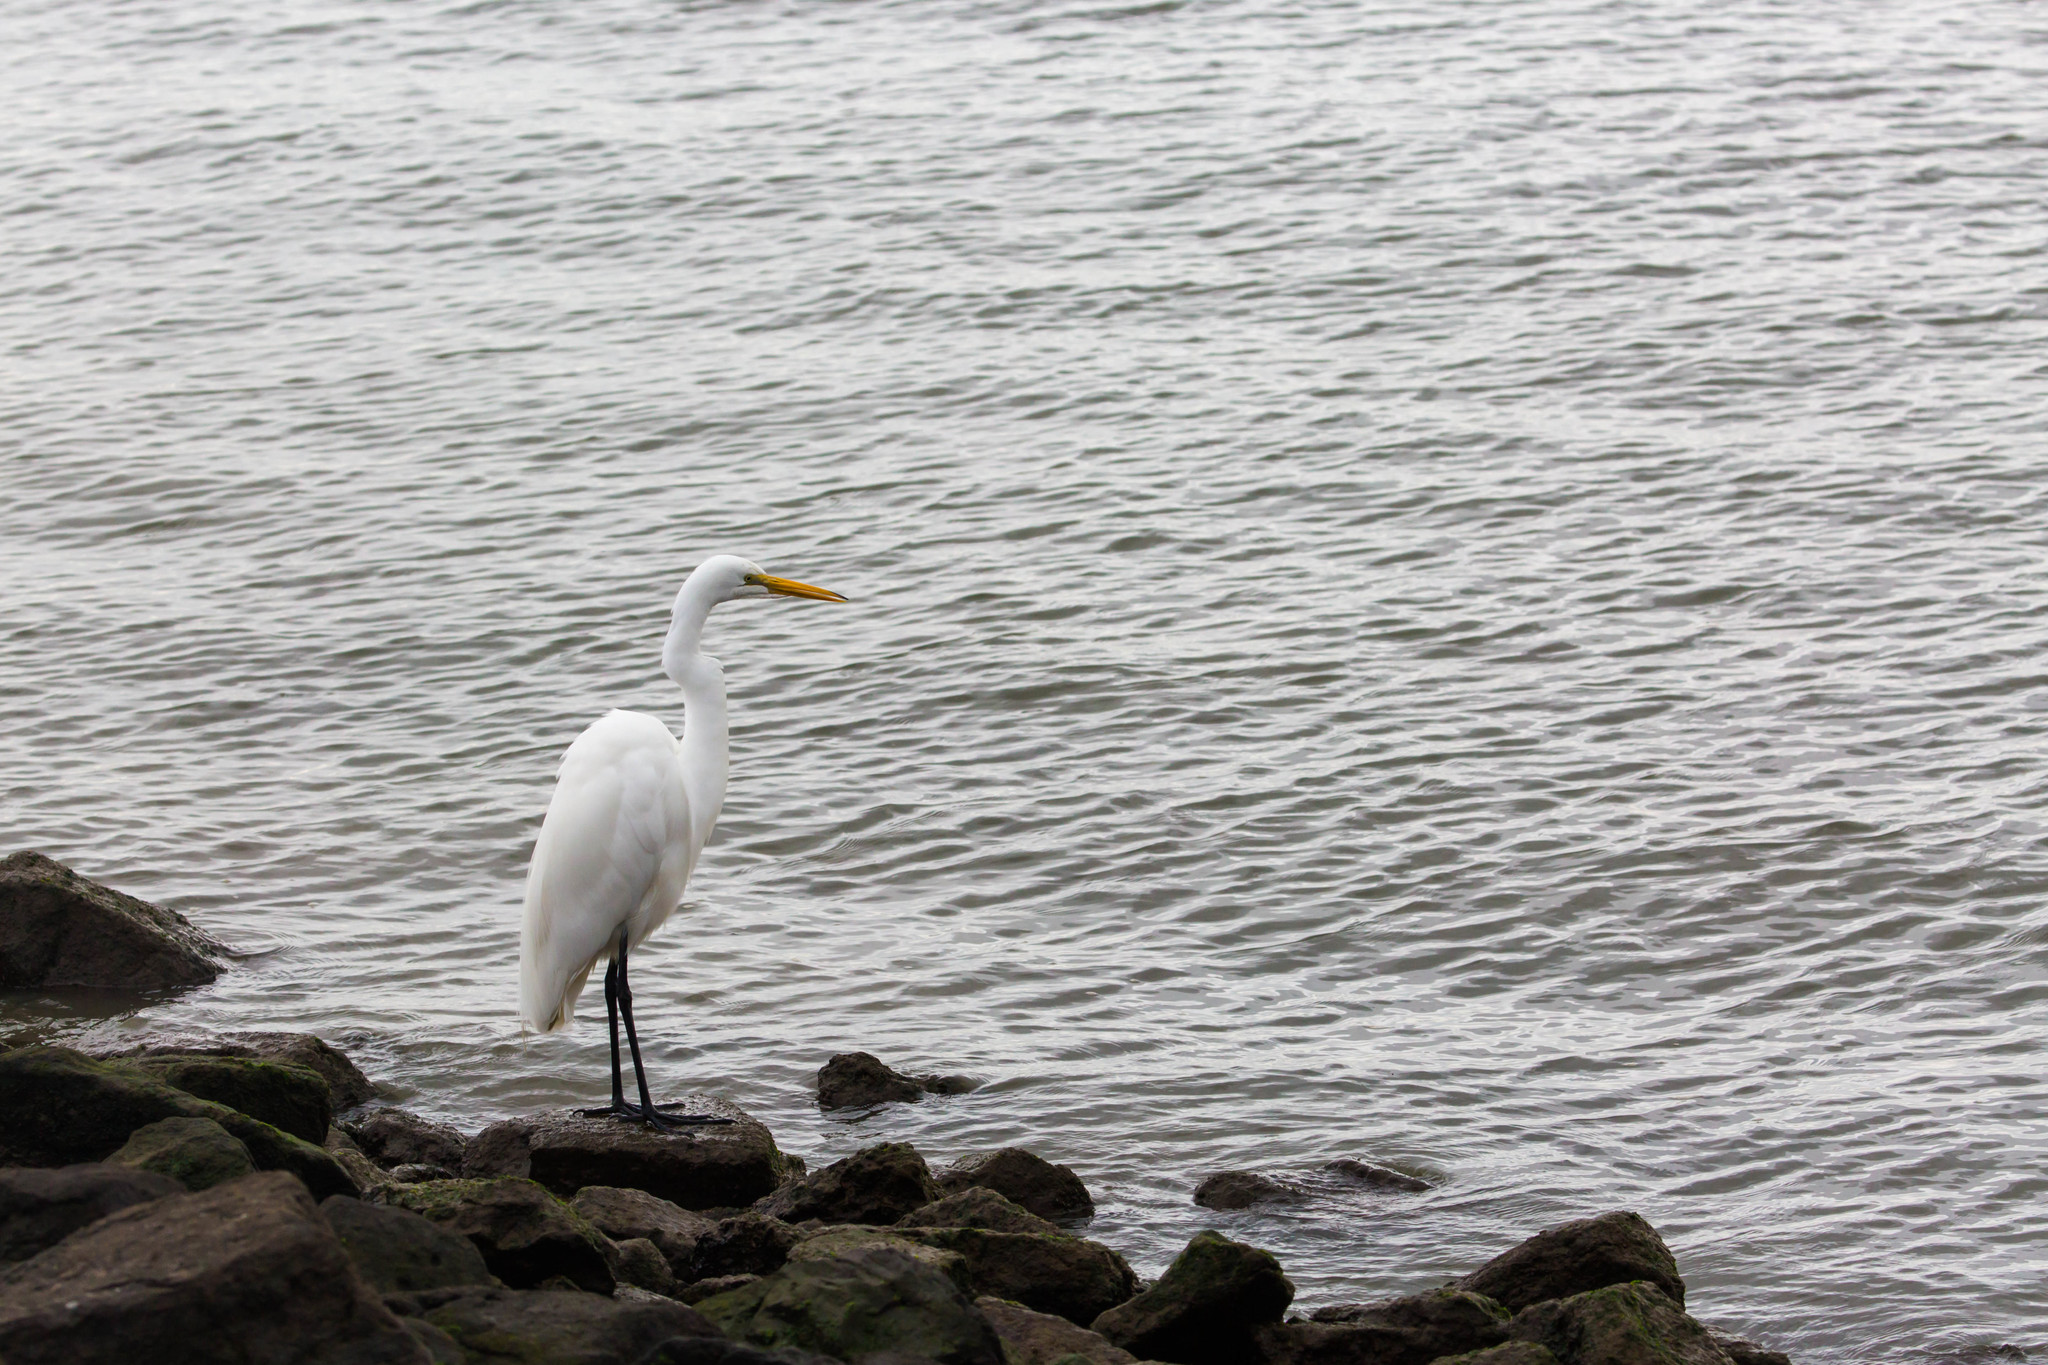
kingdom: Animalia
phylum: Chordata
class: Aves
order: Pelecaniformes
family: Ardeidae
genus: Ardea
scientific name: Ardea alba
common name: Great egret
